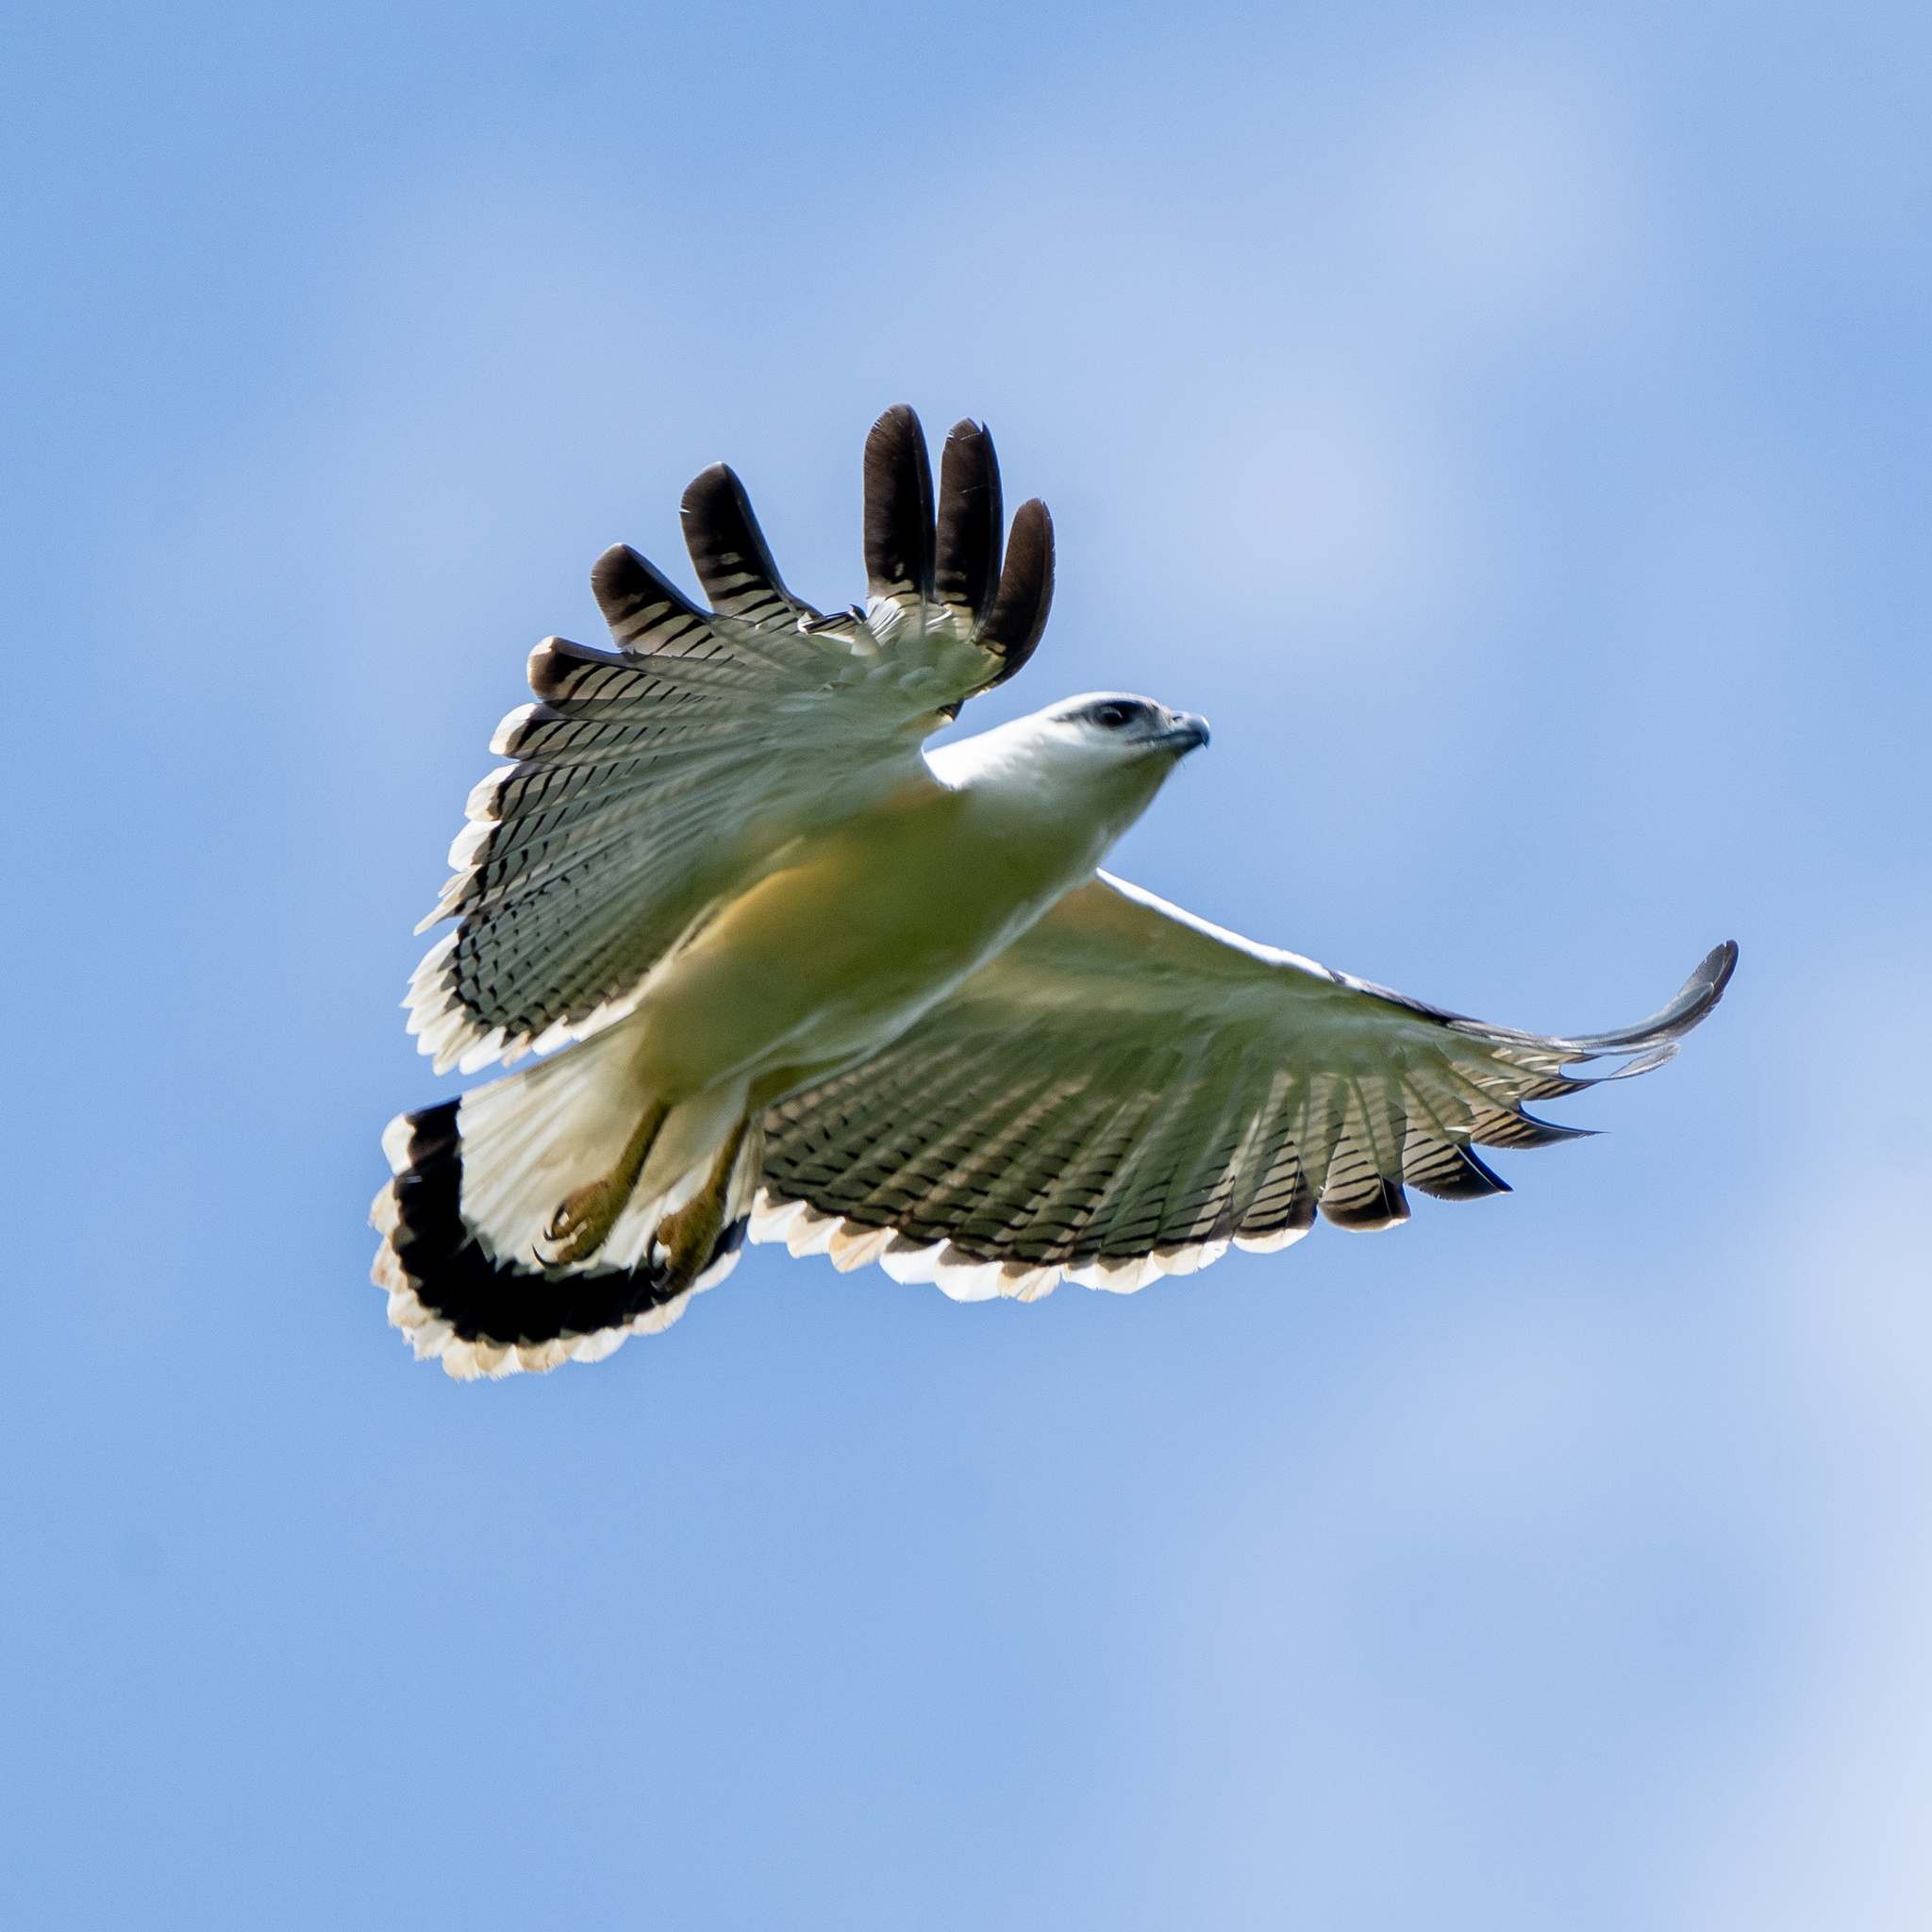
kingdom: Animalia
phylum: Chordata
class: Aves
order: Accipitriformes
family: Accipitridae
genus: Leucopternis
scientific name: Leucopternis albicollis
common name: White hawk
